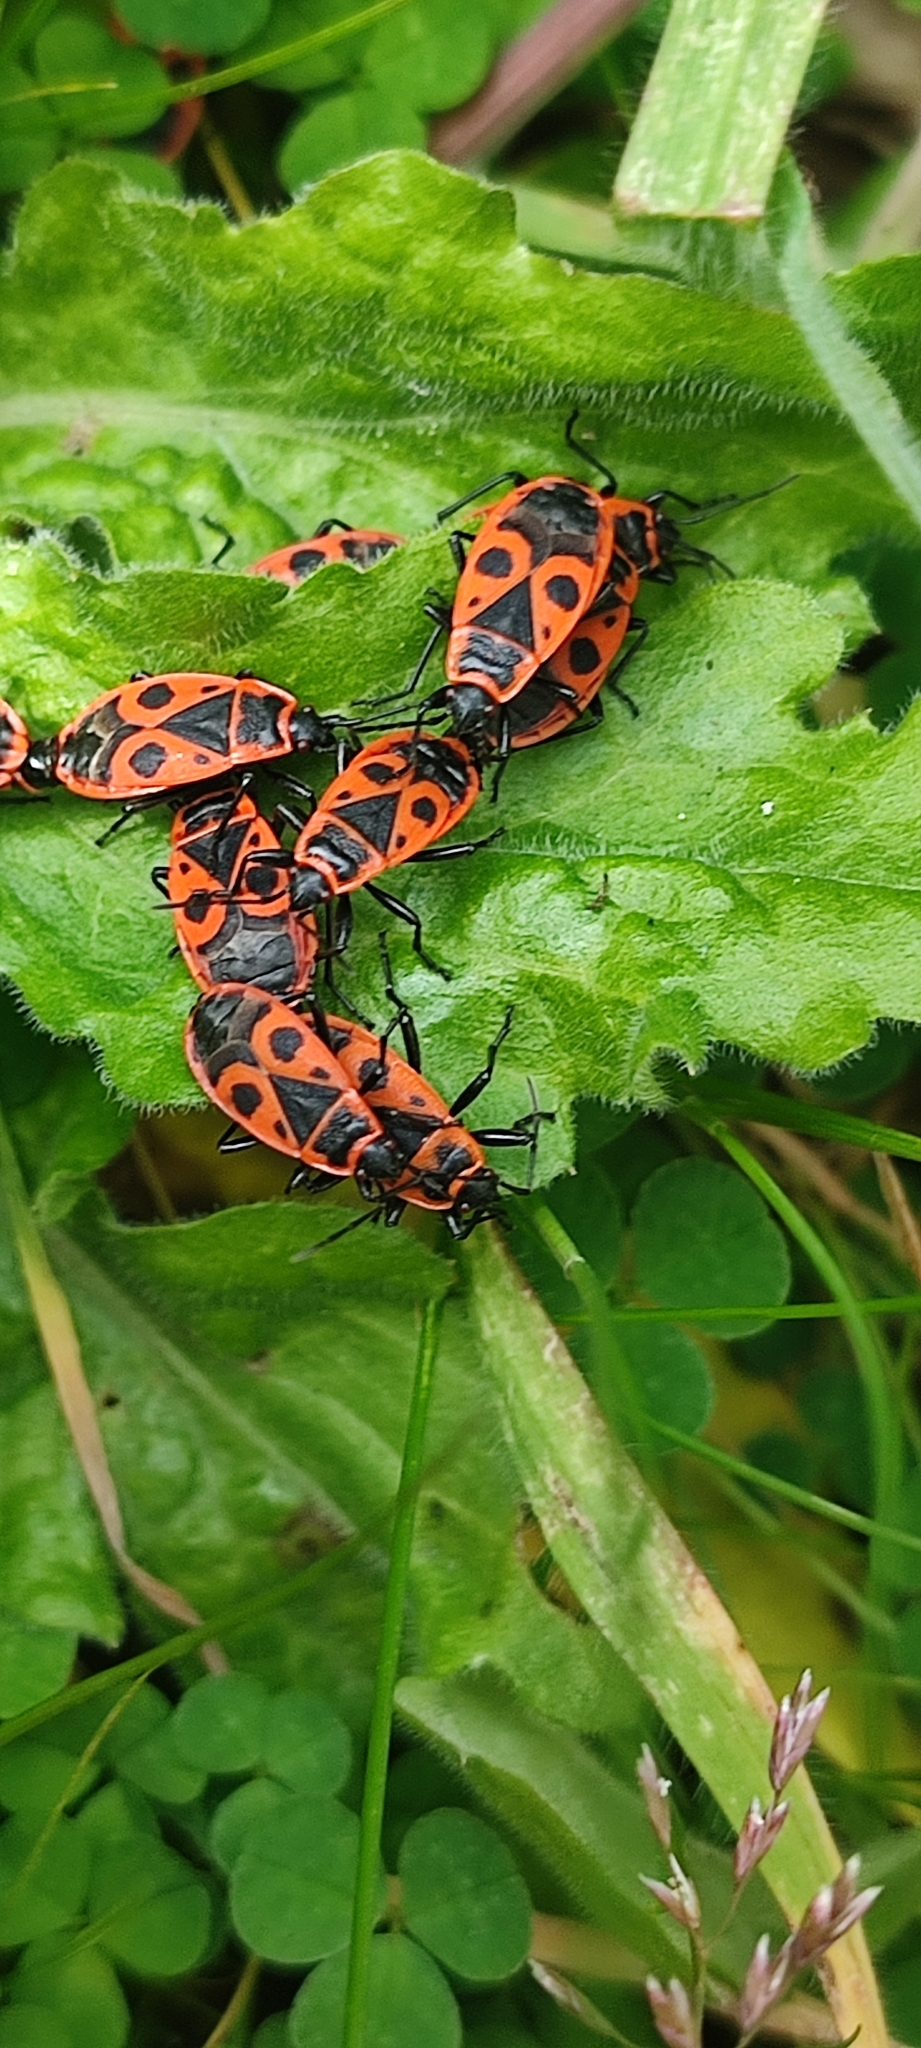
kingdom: Animalia
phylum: Arthropoda
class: Insecta
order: Hemiptera
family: Pyrrhocoridae
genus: Pyrrhocoris
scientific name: Pyrrhocoris apterus
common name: Firebug
